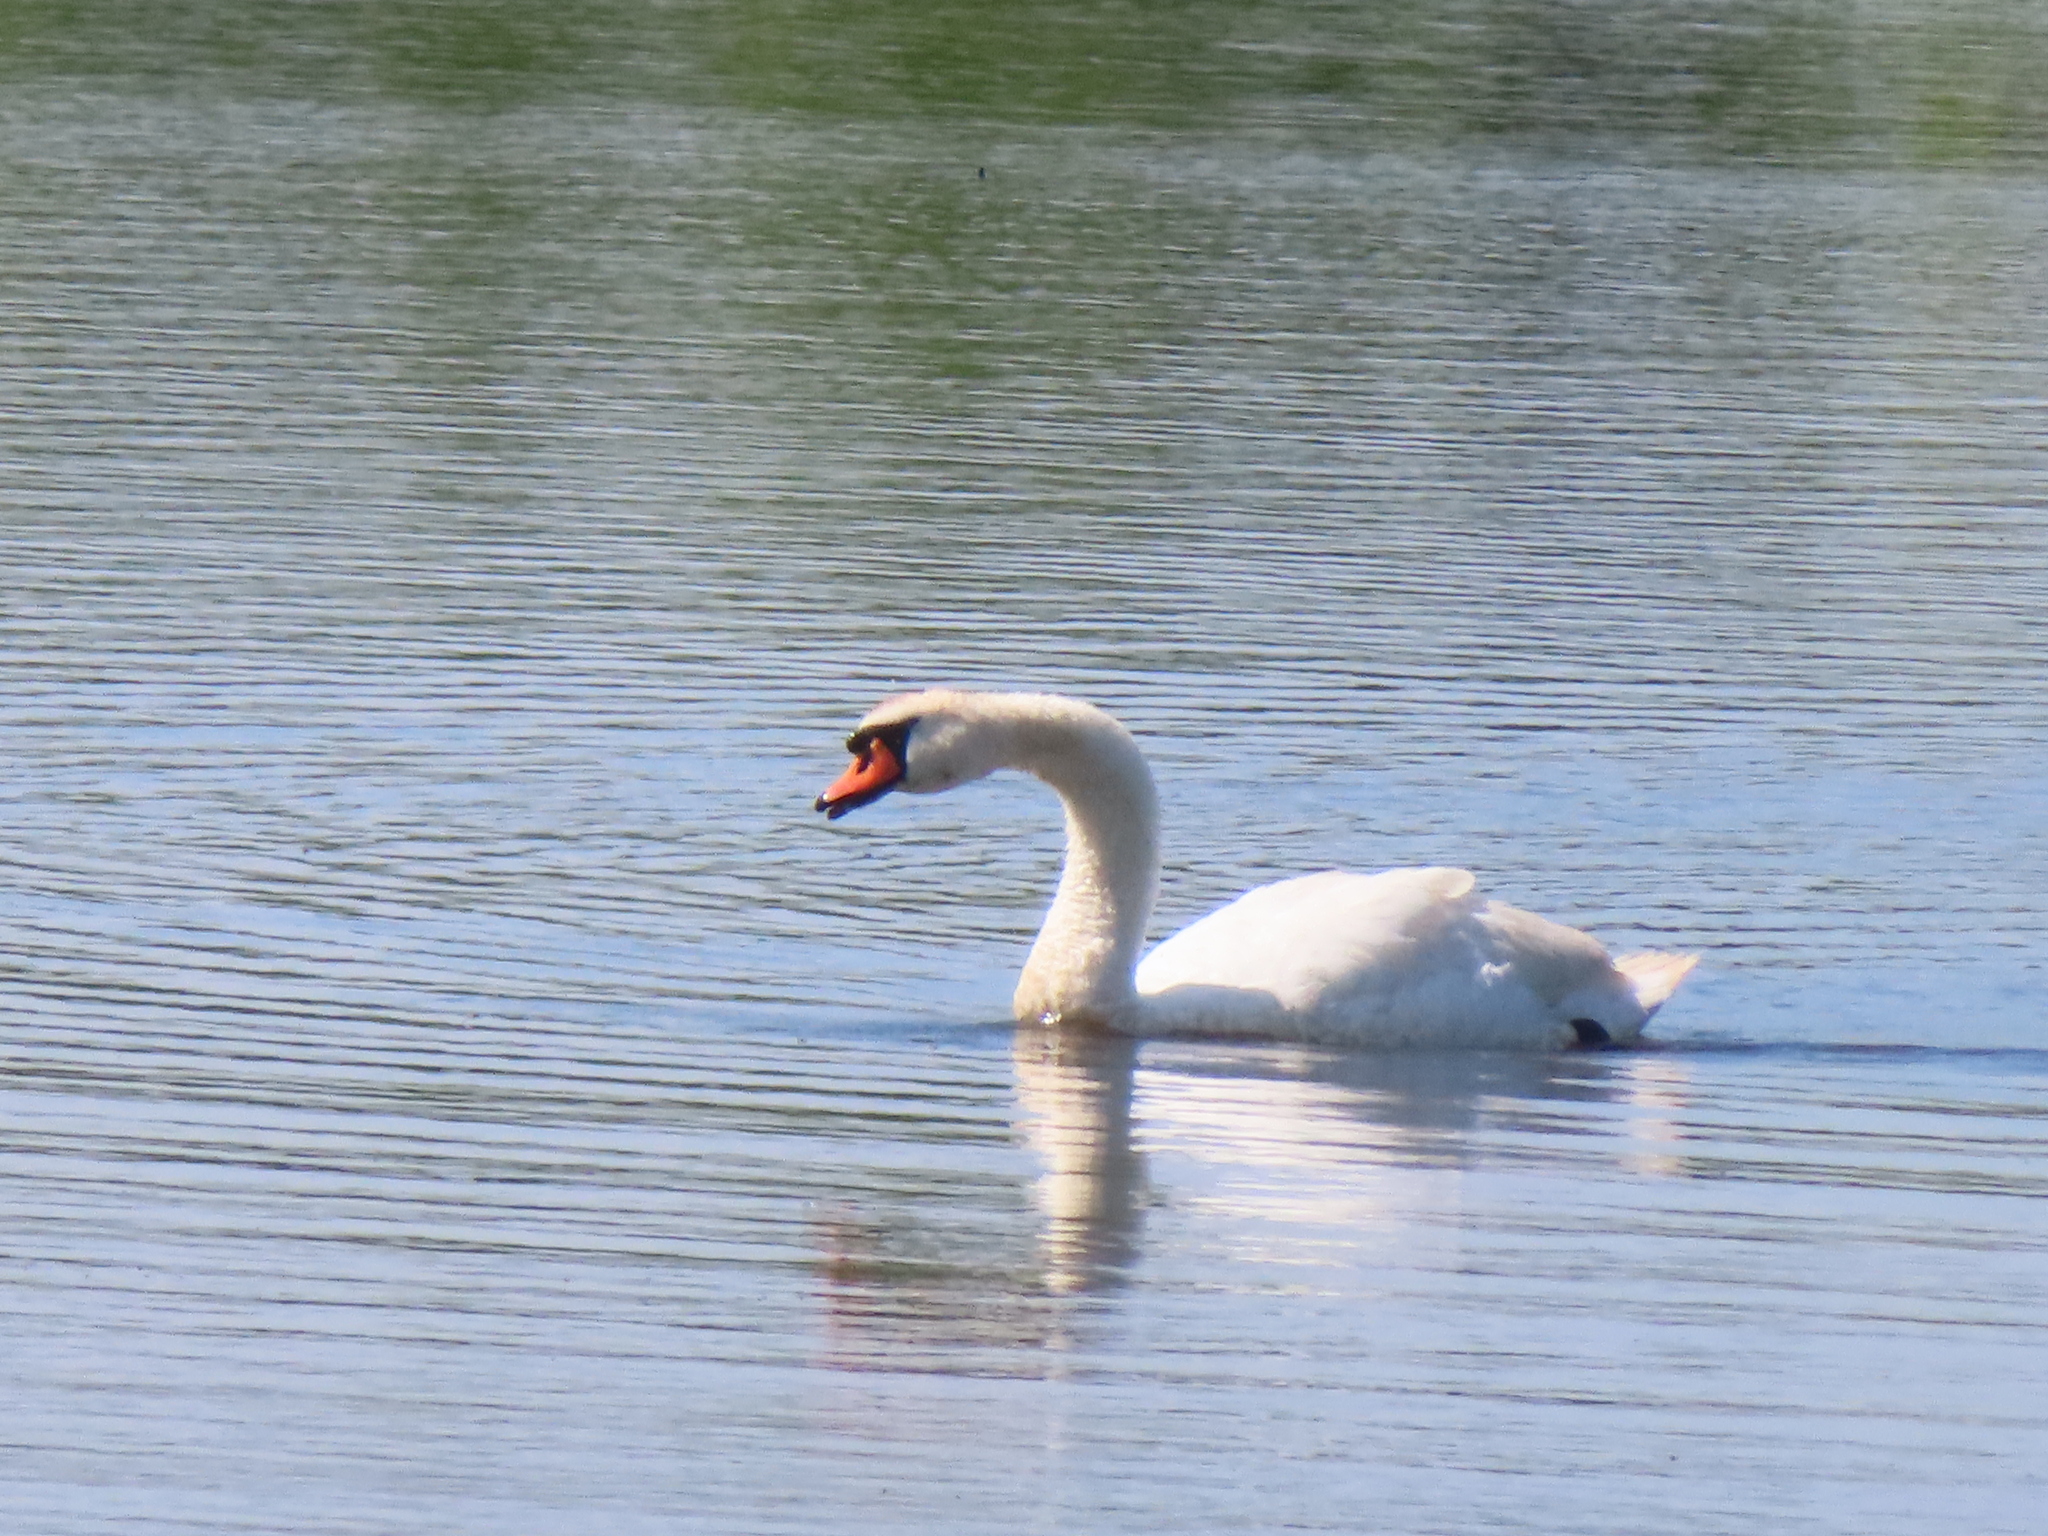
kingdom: Animalia
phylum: Chordata
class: Aves
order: Anseriformes
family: Anatidae
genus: Cygnus
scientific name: Cygnus olor
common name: Mute swan
